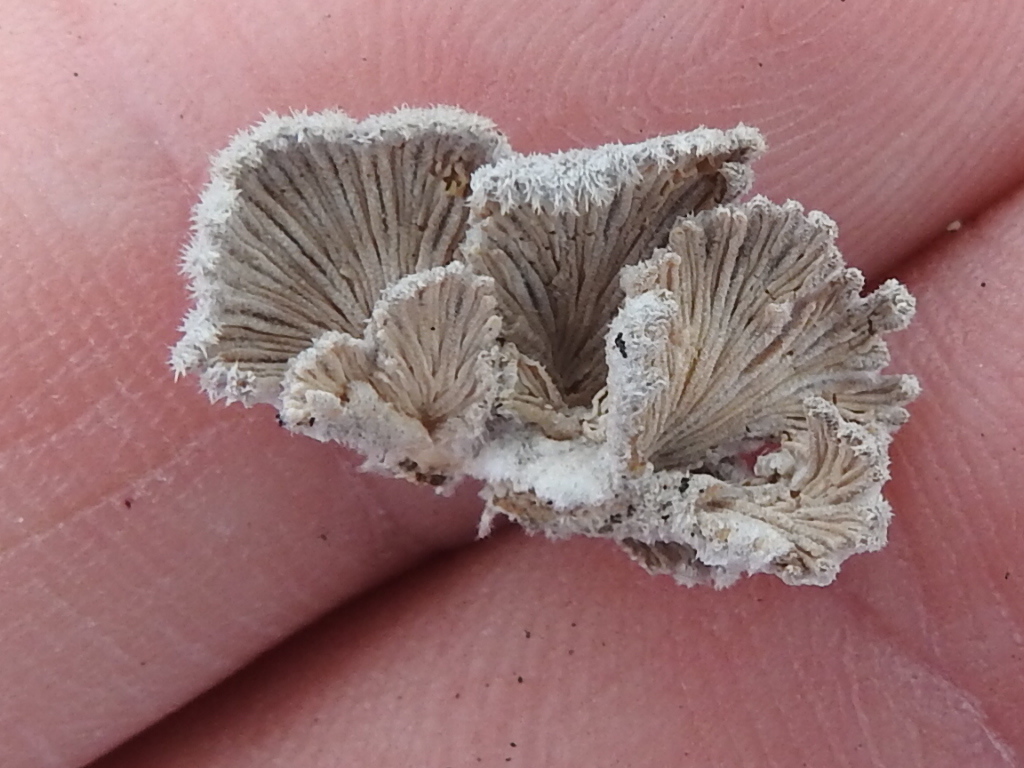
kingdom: Fungi
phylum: Basidiomycota
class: Agaricomycetes
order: Agaricales
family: Schizophyllaceae
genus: Schizophyllum
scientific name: Schizophyllum commune
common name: Common porecrust
